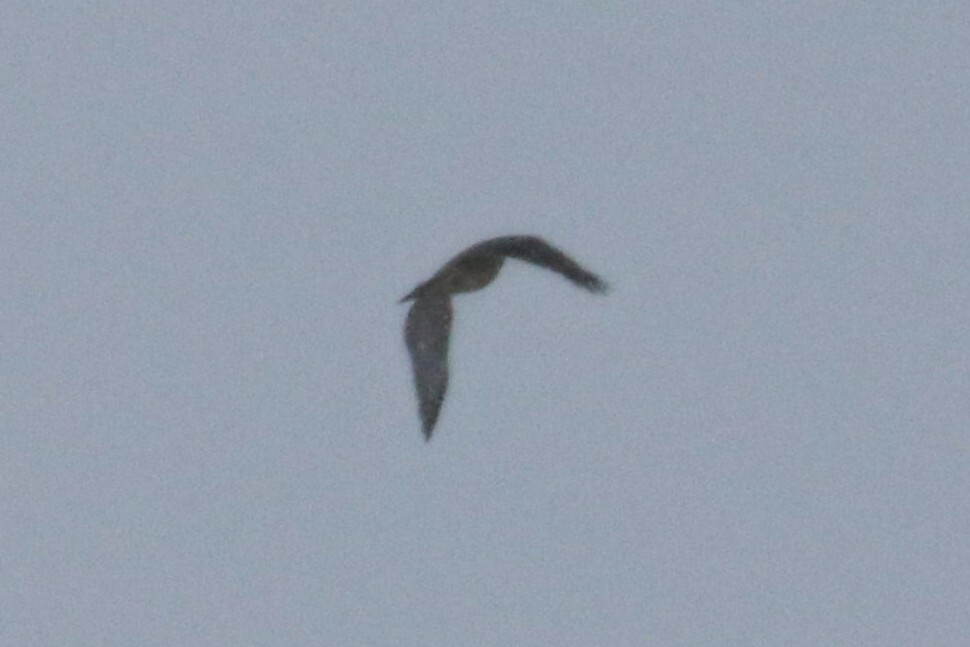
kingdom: Animalia
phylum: Chordata
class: Aves
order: Accipitriformes
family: Accipitridae
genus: Accipiter
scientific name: Accipiter gentilis
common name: Northern goshawk
